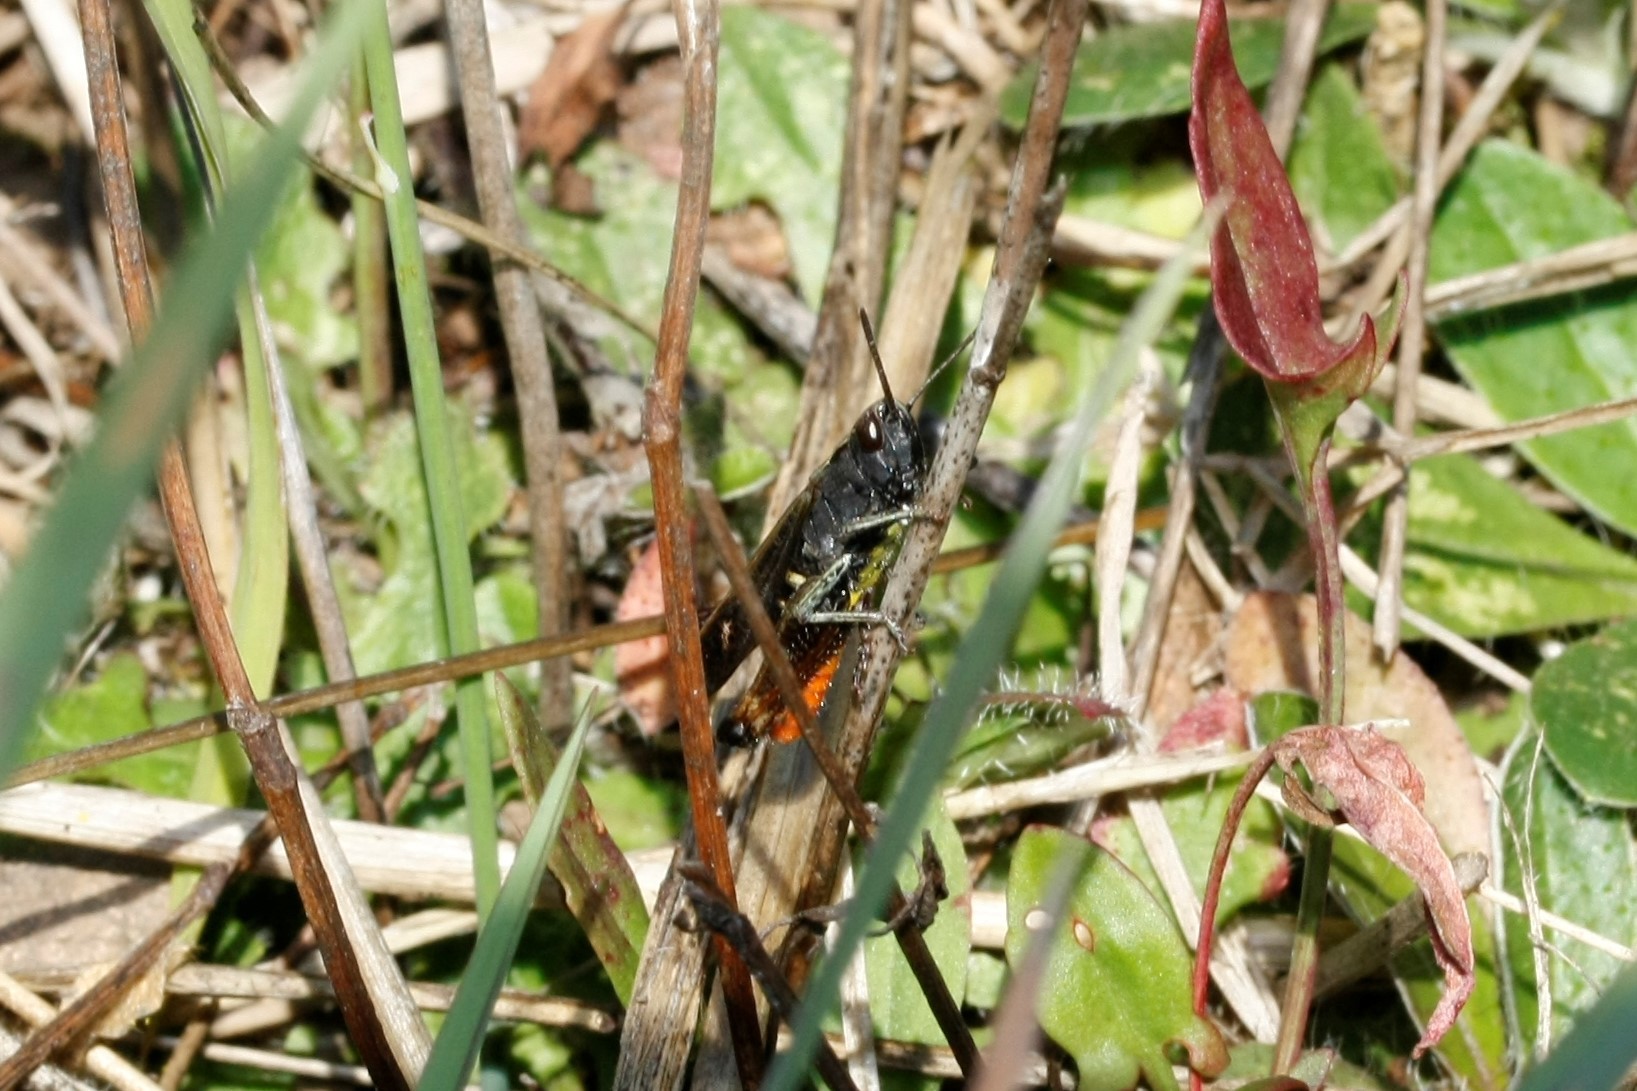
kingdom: Animalia
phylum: Arthropoda
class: Insecta
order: Orthoptera
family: Acrididae
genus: Omocestus
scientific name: Omocestus rufipes
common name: Woodland grasshopper
